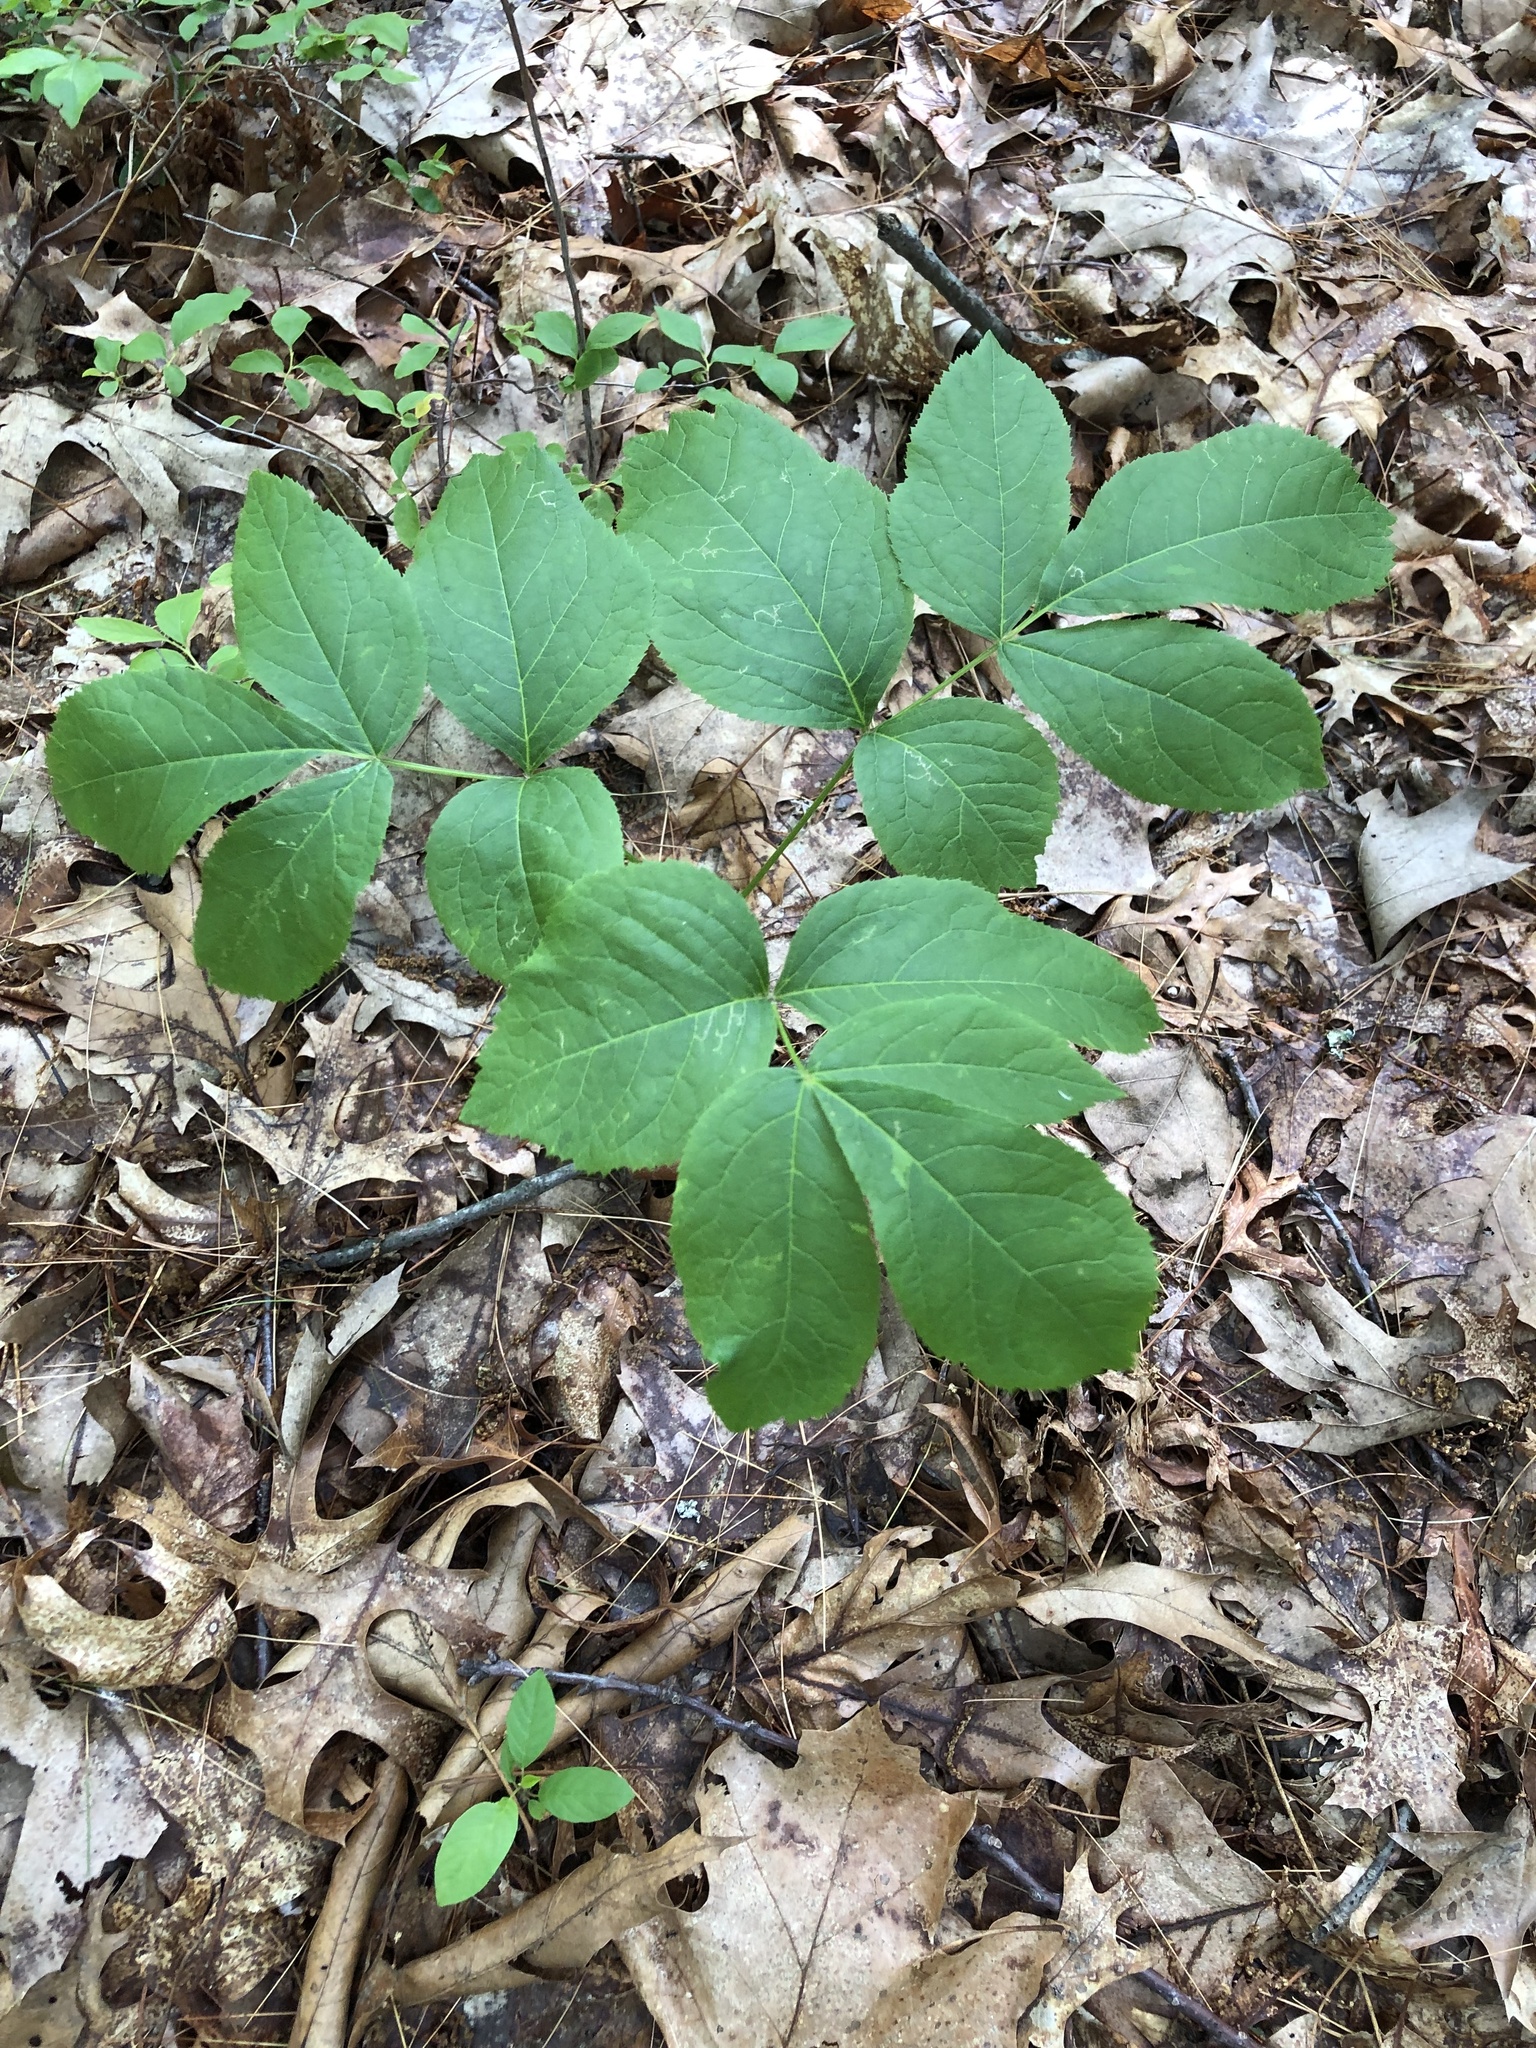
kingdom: Plantae
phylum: Tracheophyta
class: Magnoliopsida
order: Apiales
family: Araliaceae
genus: Aralia
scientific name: Aralia nudicaulis
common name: Wild sarsaparilla
